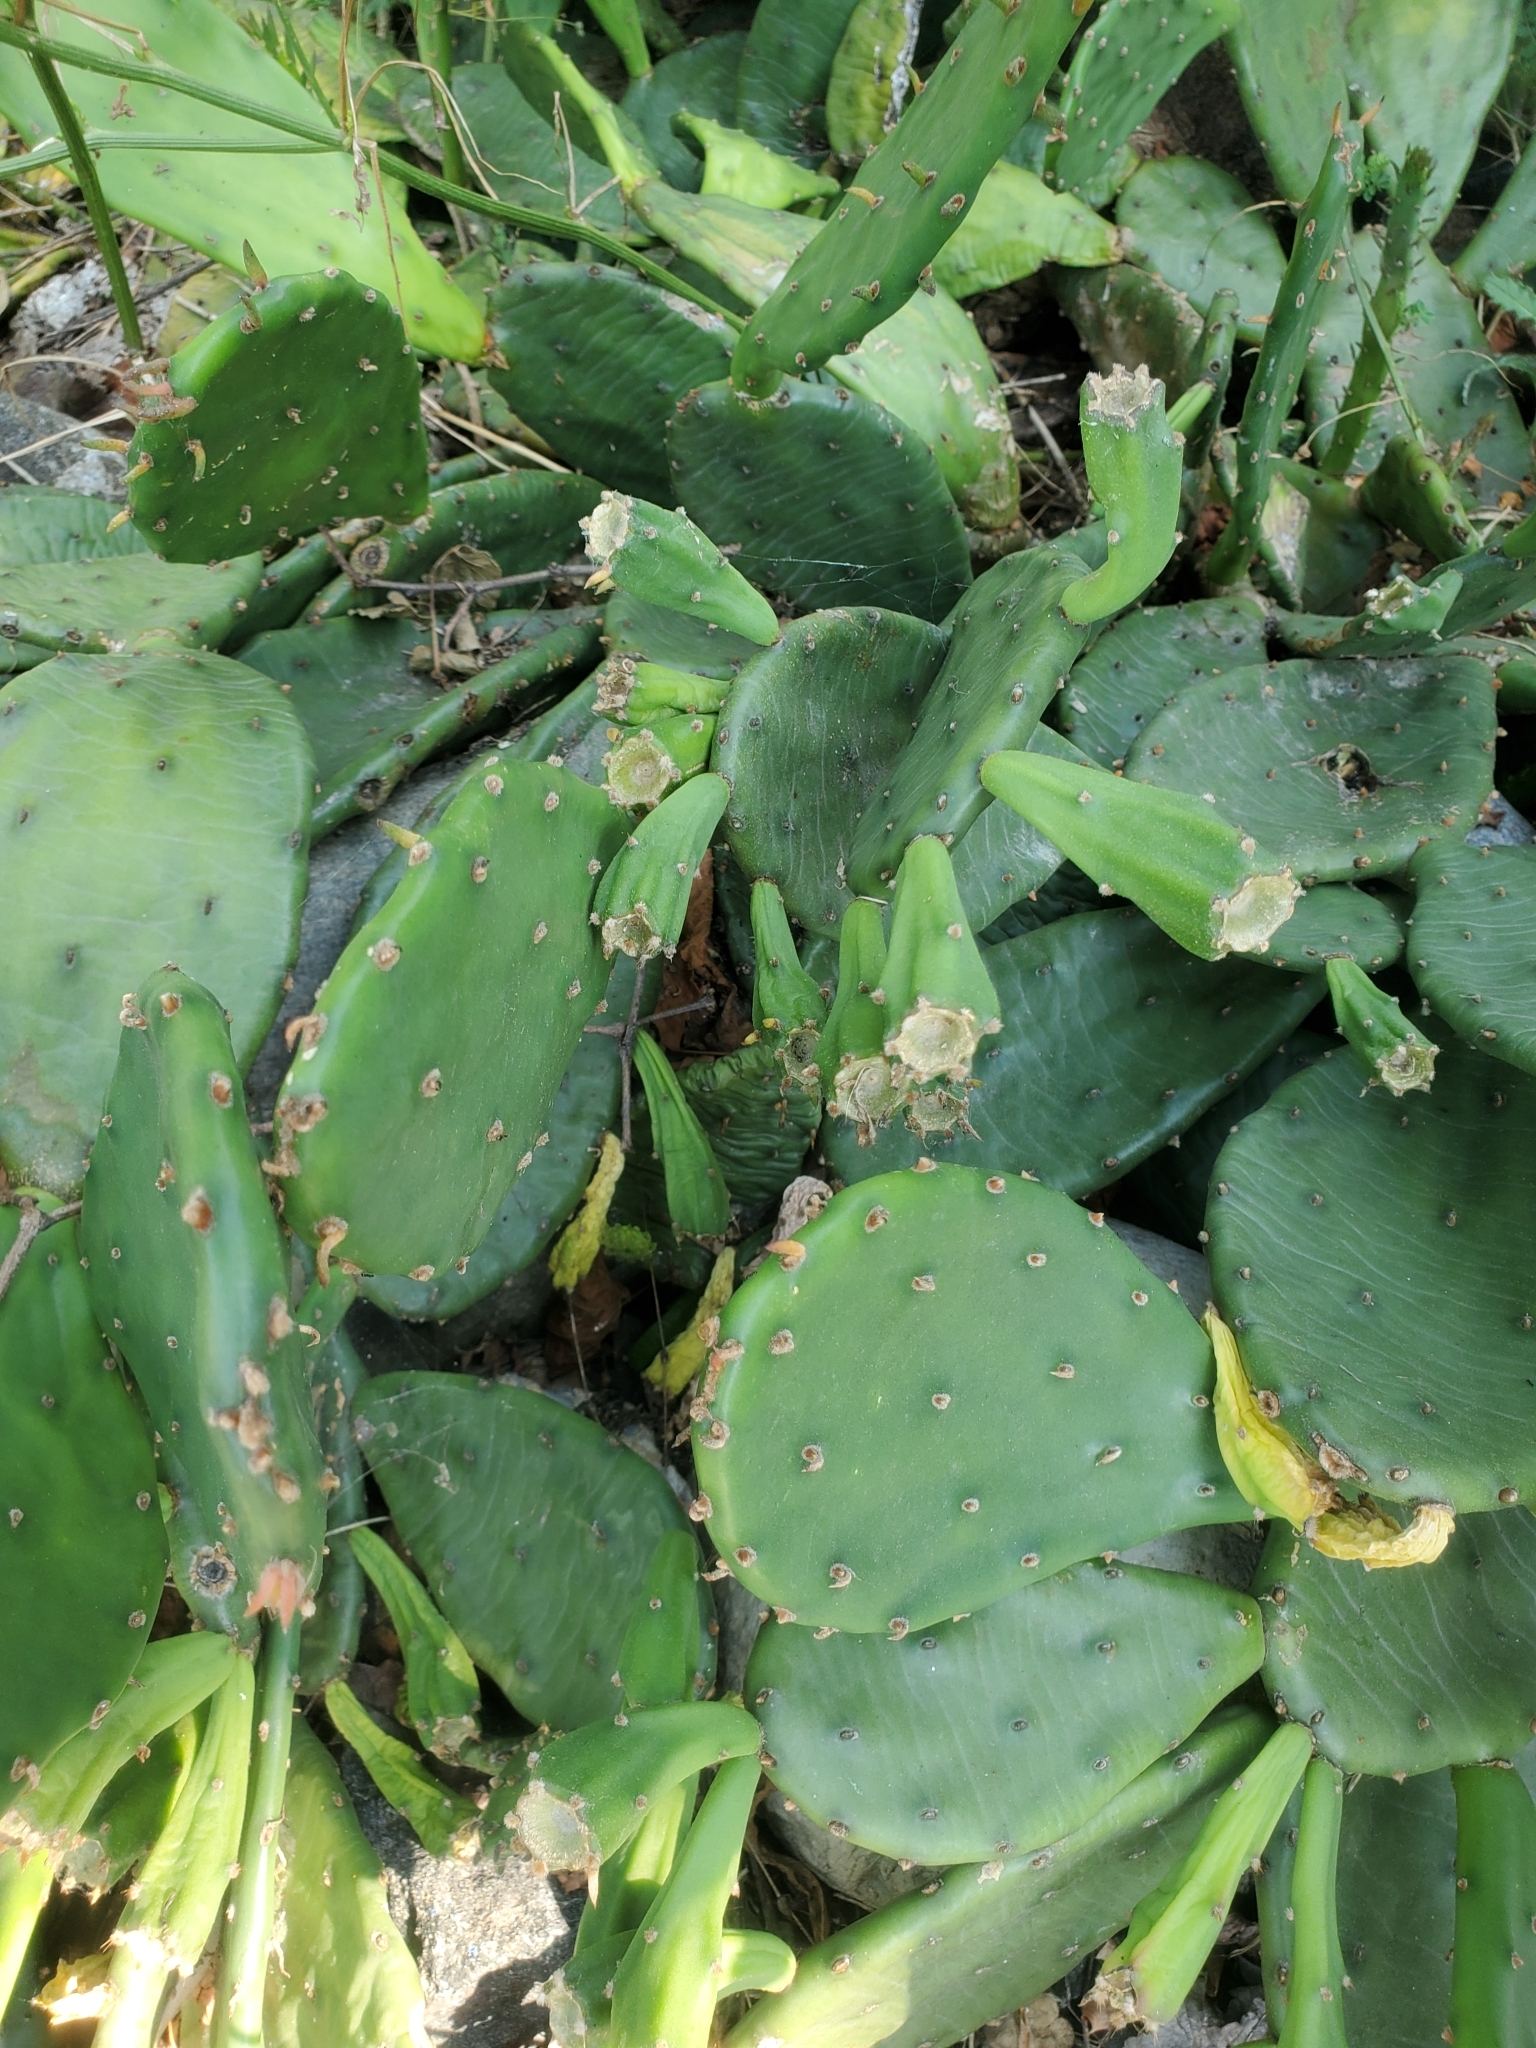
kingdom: Plantae
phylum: Tracheophyta
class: Magnoliopsida
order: Caryophyllales
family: Cactaceae
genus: Opuntia
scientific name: Opuntia humifusa
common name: Eastern prickly-pear
